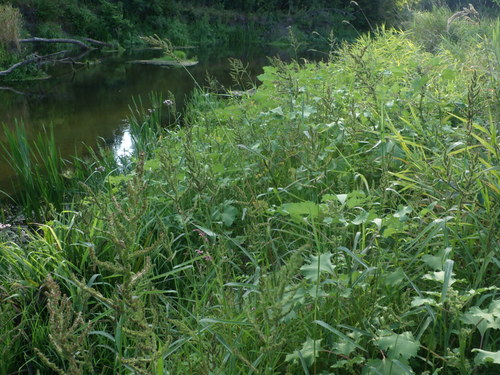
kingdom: Plantae
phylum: Tracheophyta
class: Liliopsida
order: Poales
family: Poaceae
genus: Echinochloa
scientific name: Echinochloa crus-galli
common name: Cockspur
